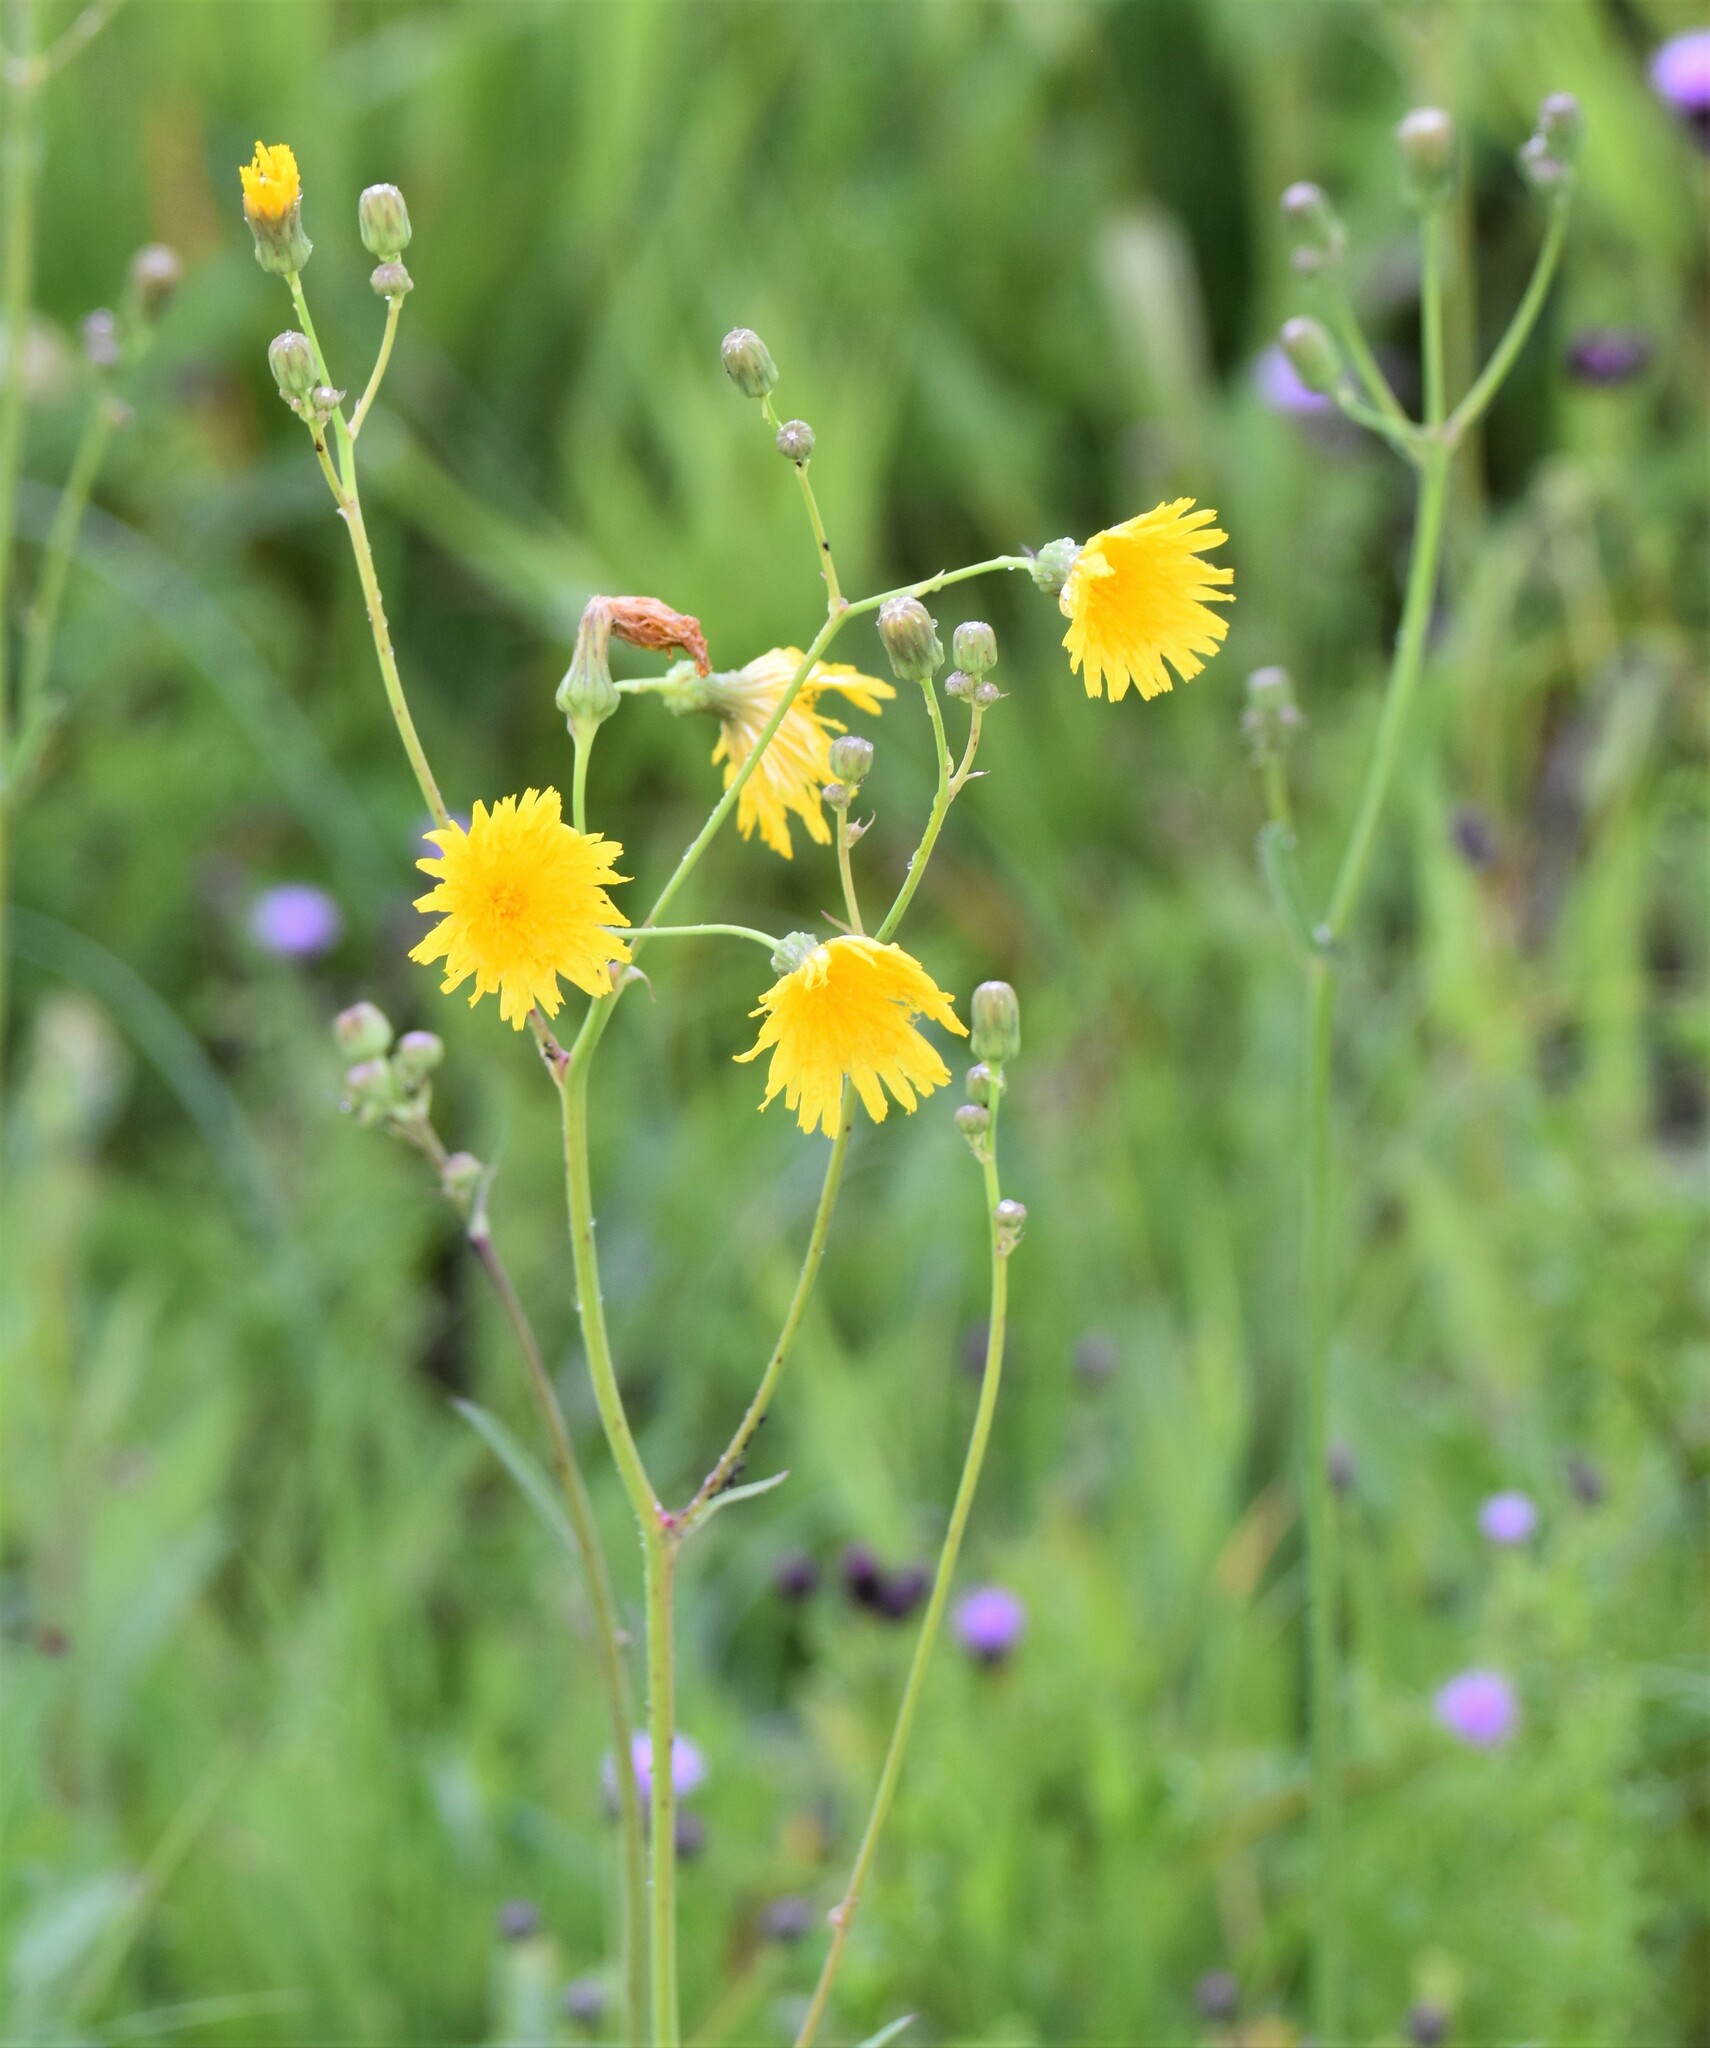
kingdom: Plantae
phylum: Tracheophyta
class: Magnoliopsida
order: Asterales
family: Asteraceae
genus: Sonchus
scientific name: Sonchus arvensis
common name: Perennial sow-thistle
